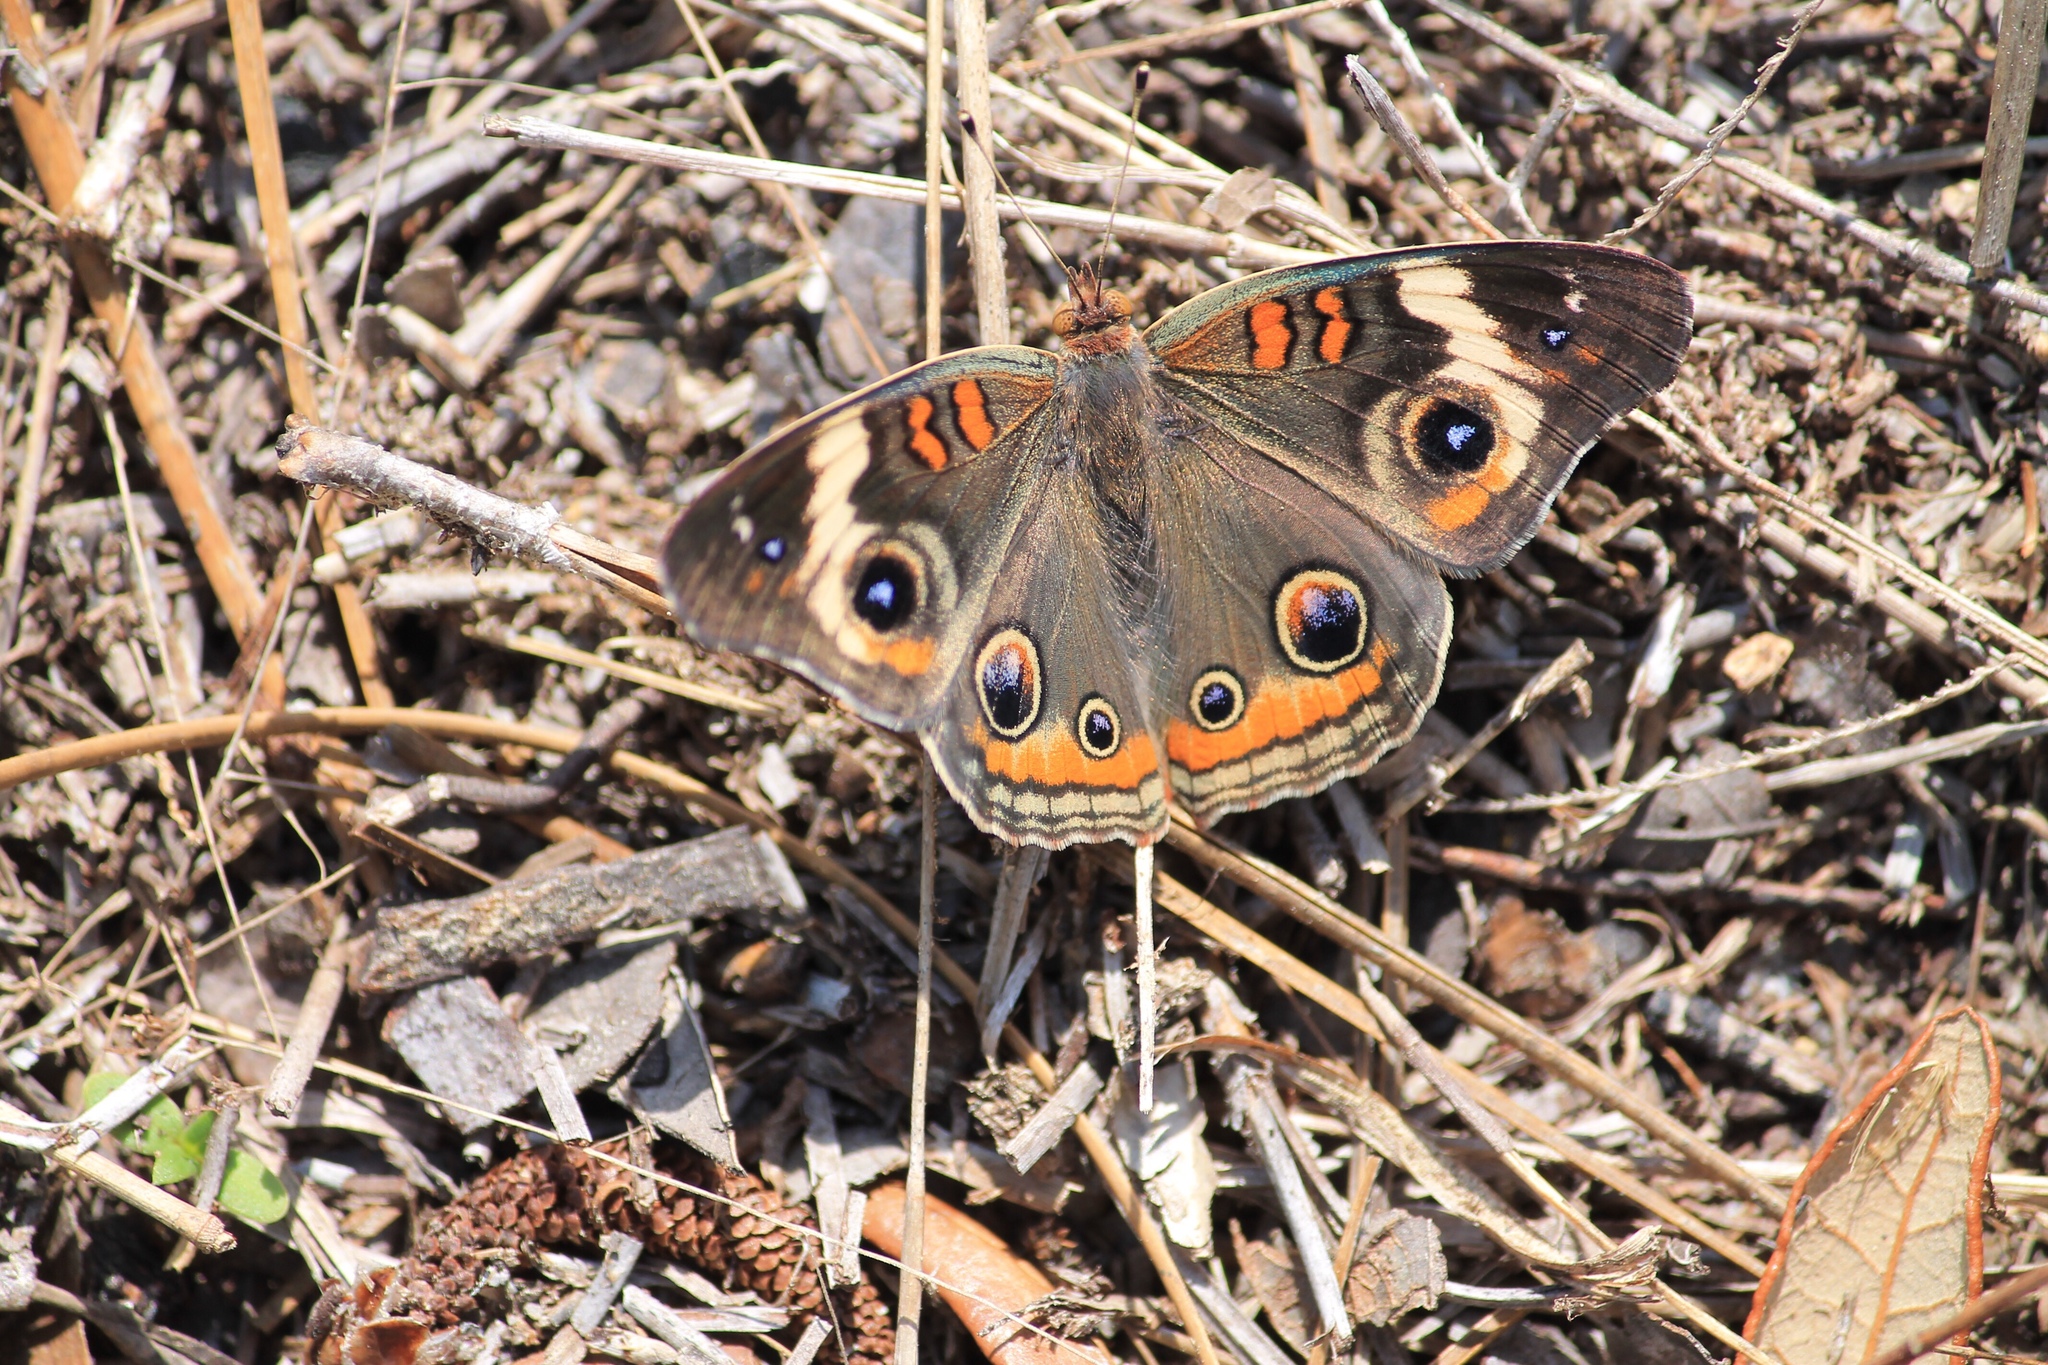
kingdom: Animalia
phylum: Arthropoda
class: Insecta
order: Lepidoptera
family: Nymphalidae
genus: Junonia
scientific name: Junonia coenia
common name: Common buckeye
